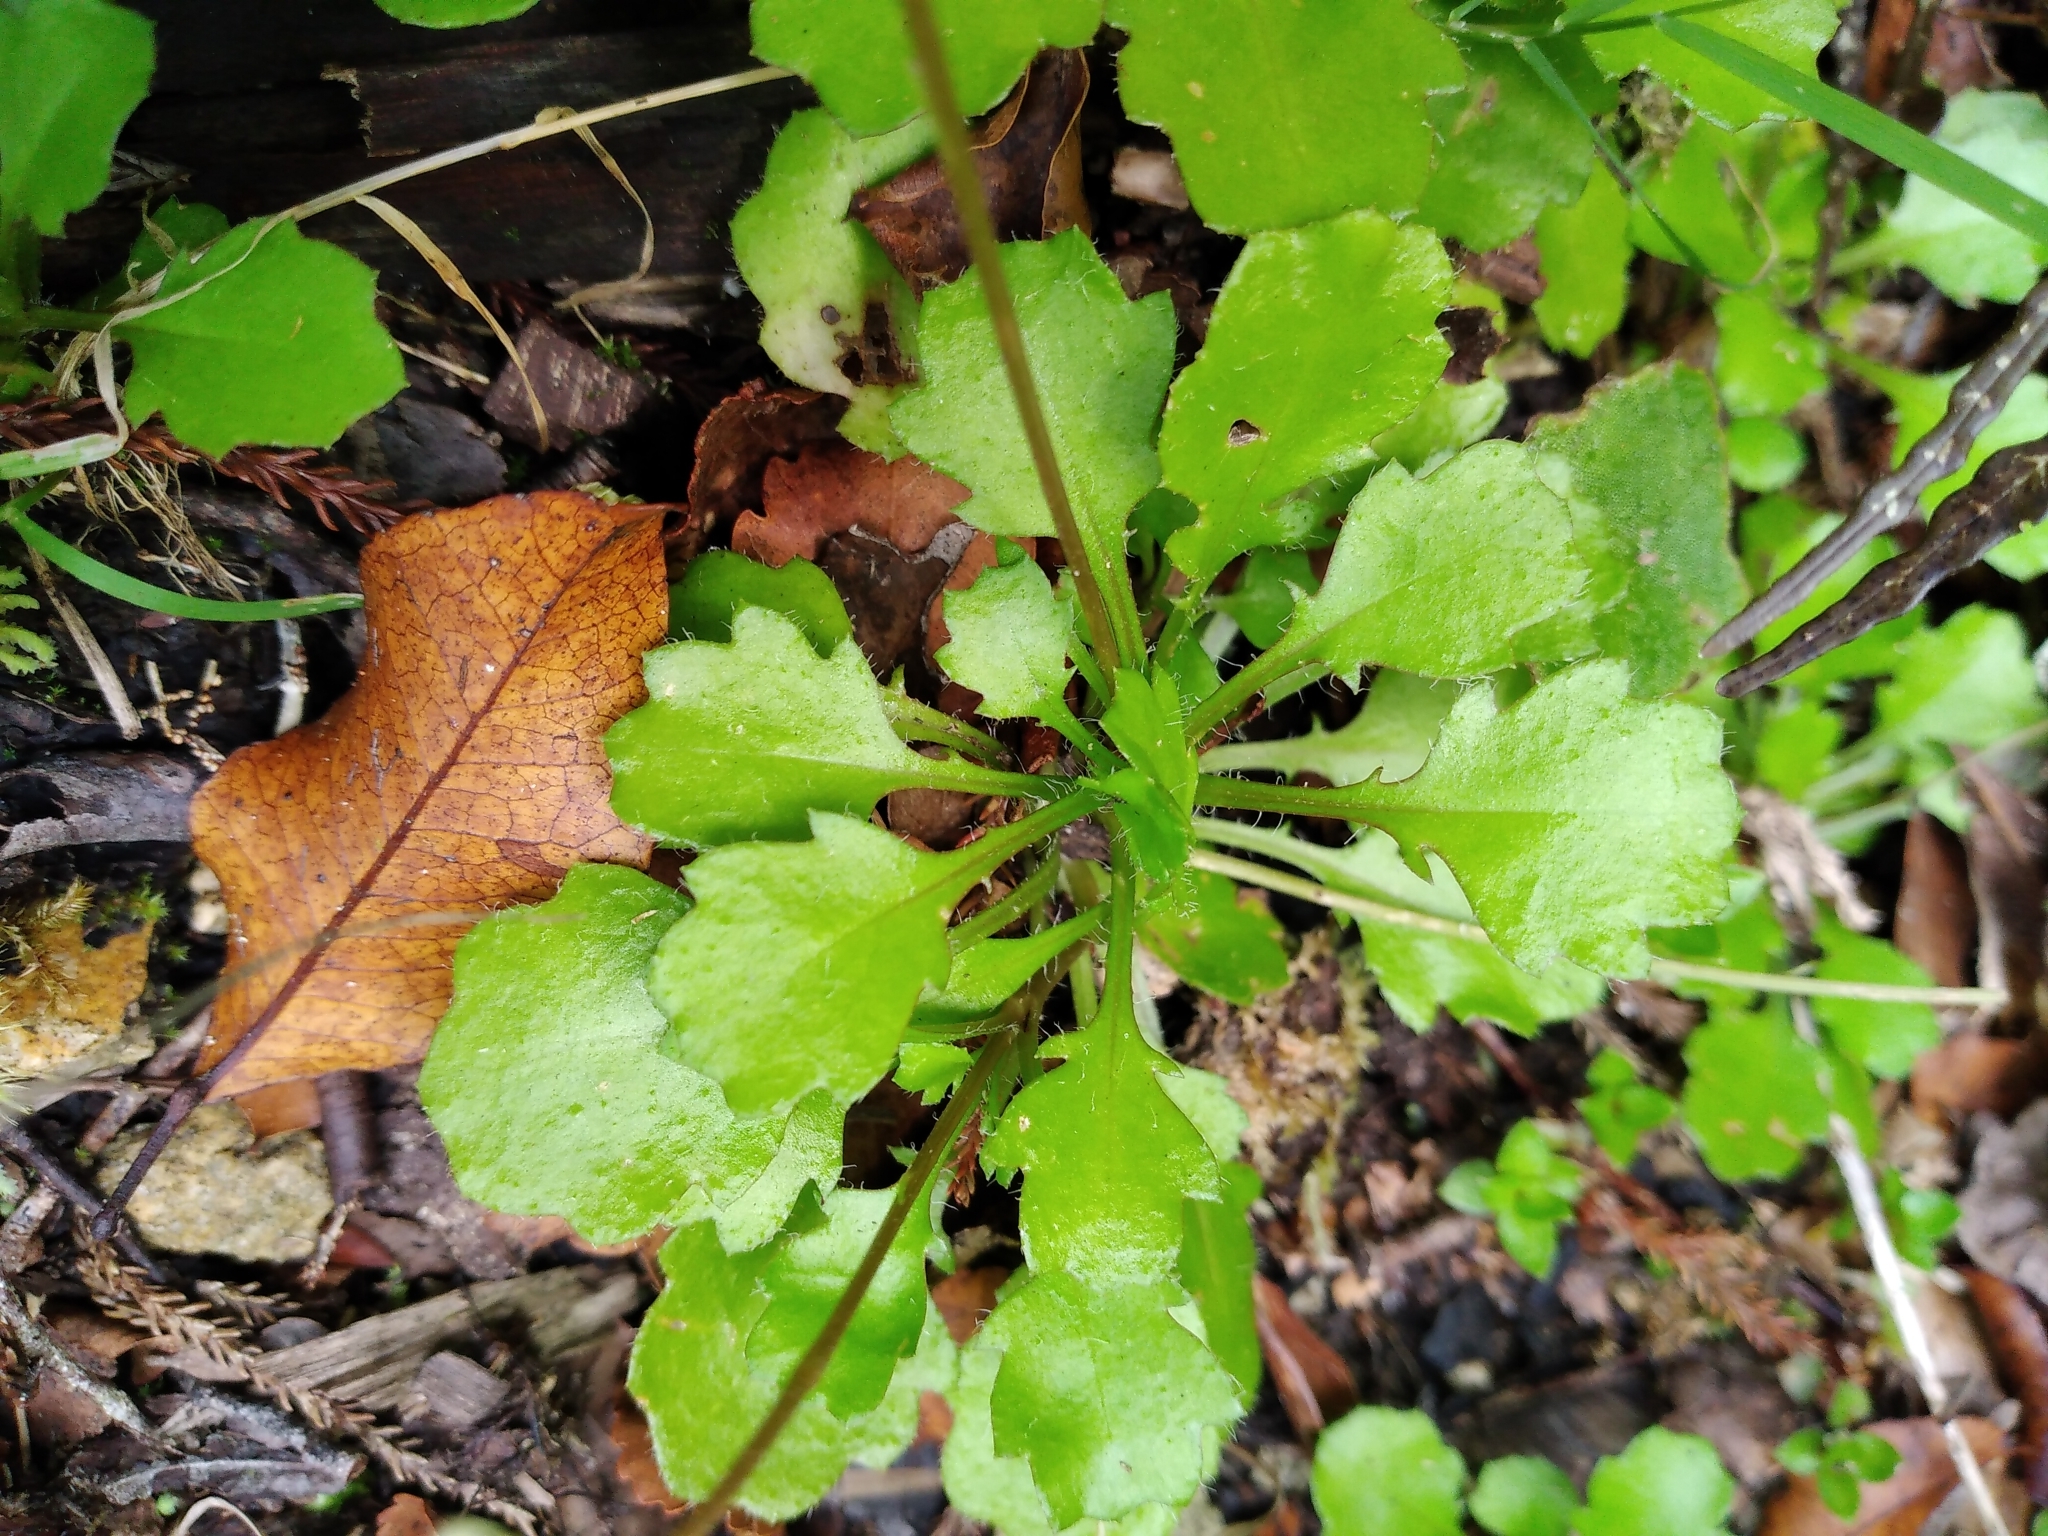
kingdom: Plantae
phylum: Tracheophyta
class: Magnoliopsida
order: Asterales
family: Asteraceae
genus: Lagenophora
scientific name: Lagenophora pumila
